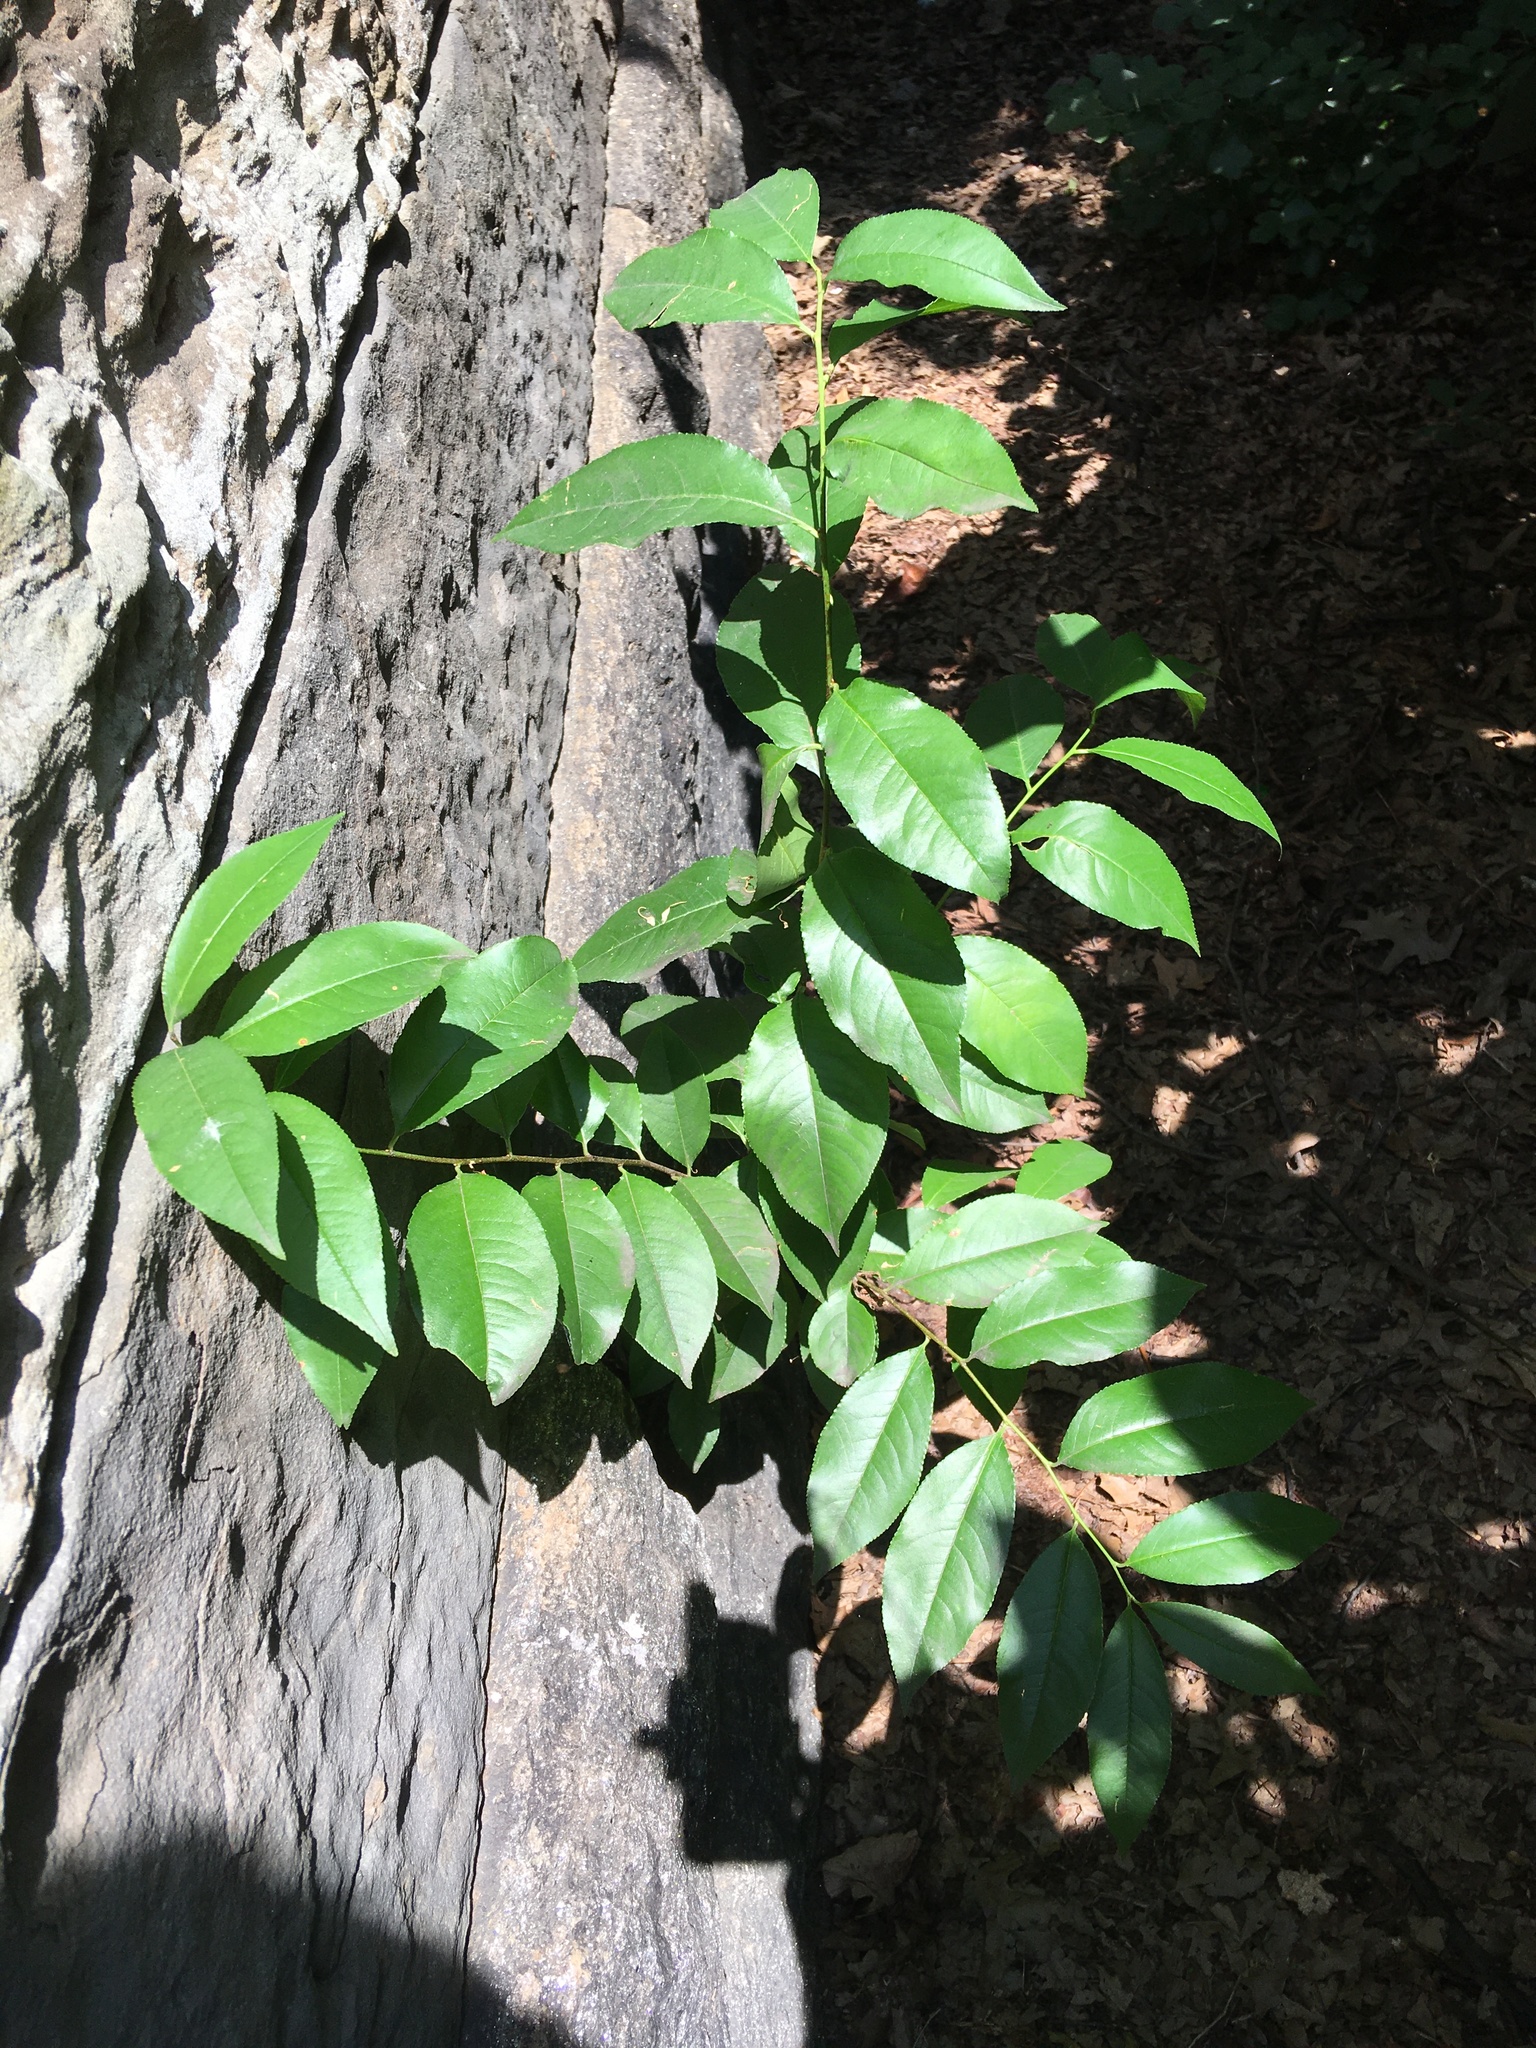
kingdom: Plantae
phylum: Tracheophyta
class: Magnoliopsida
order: Rosales
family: Rosaceae
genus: Prunus
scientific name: Prunus serotina
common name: Black cherry
